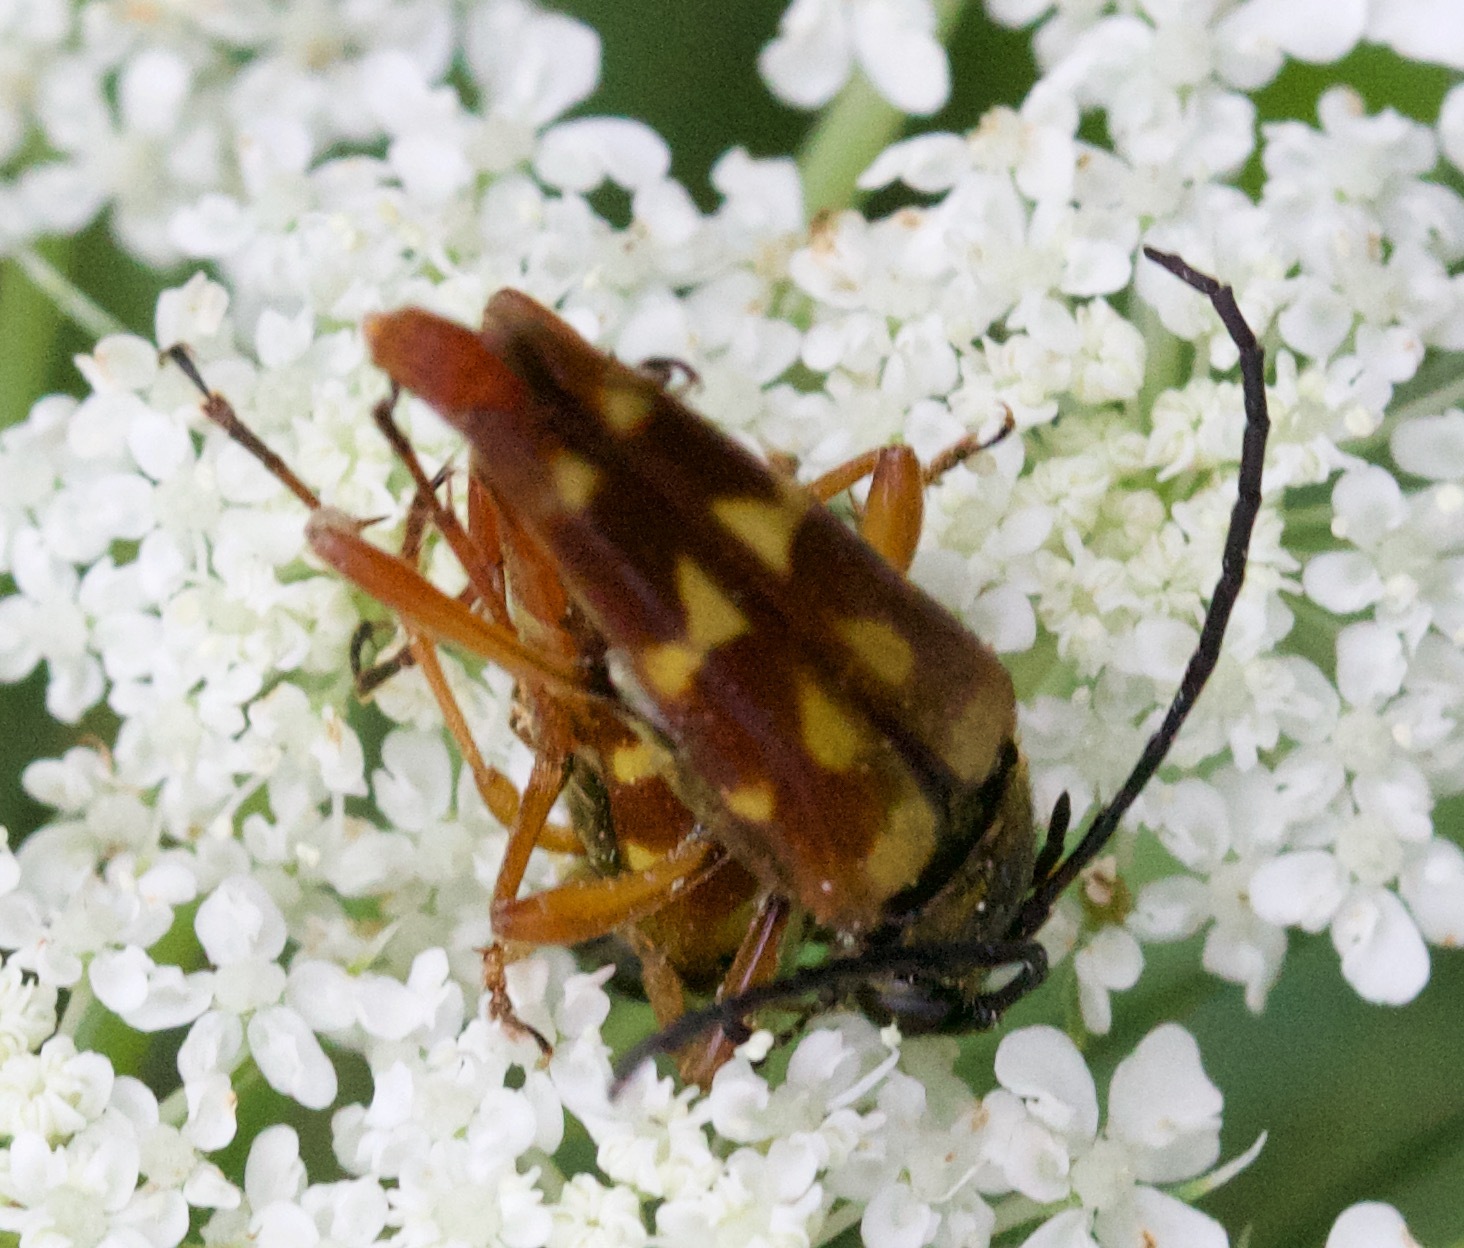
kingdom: Animalia
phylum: Arthropoda
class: Insecta
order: Coleoptera
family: Cerambycidae
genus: Typocerus
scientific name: Typocerus velutinus
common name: Banded longhorn beetle
